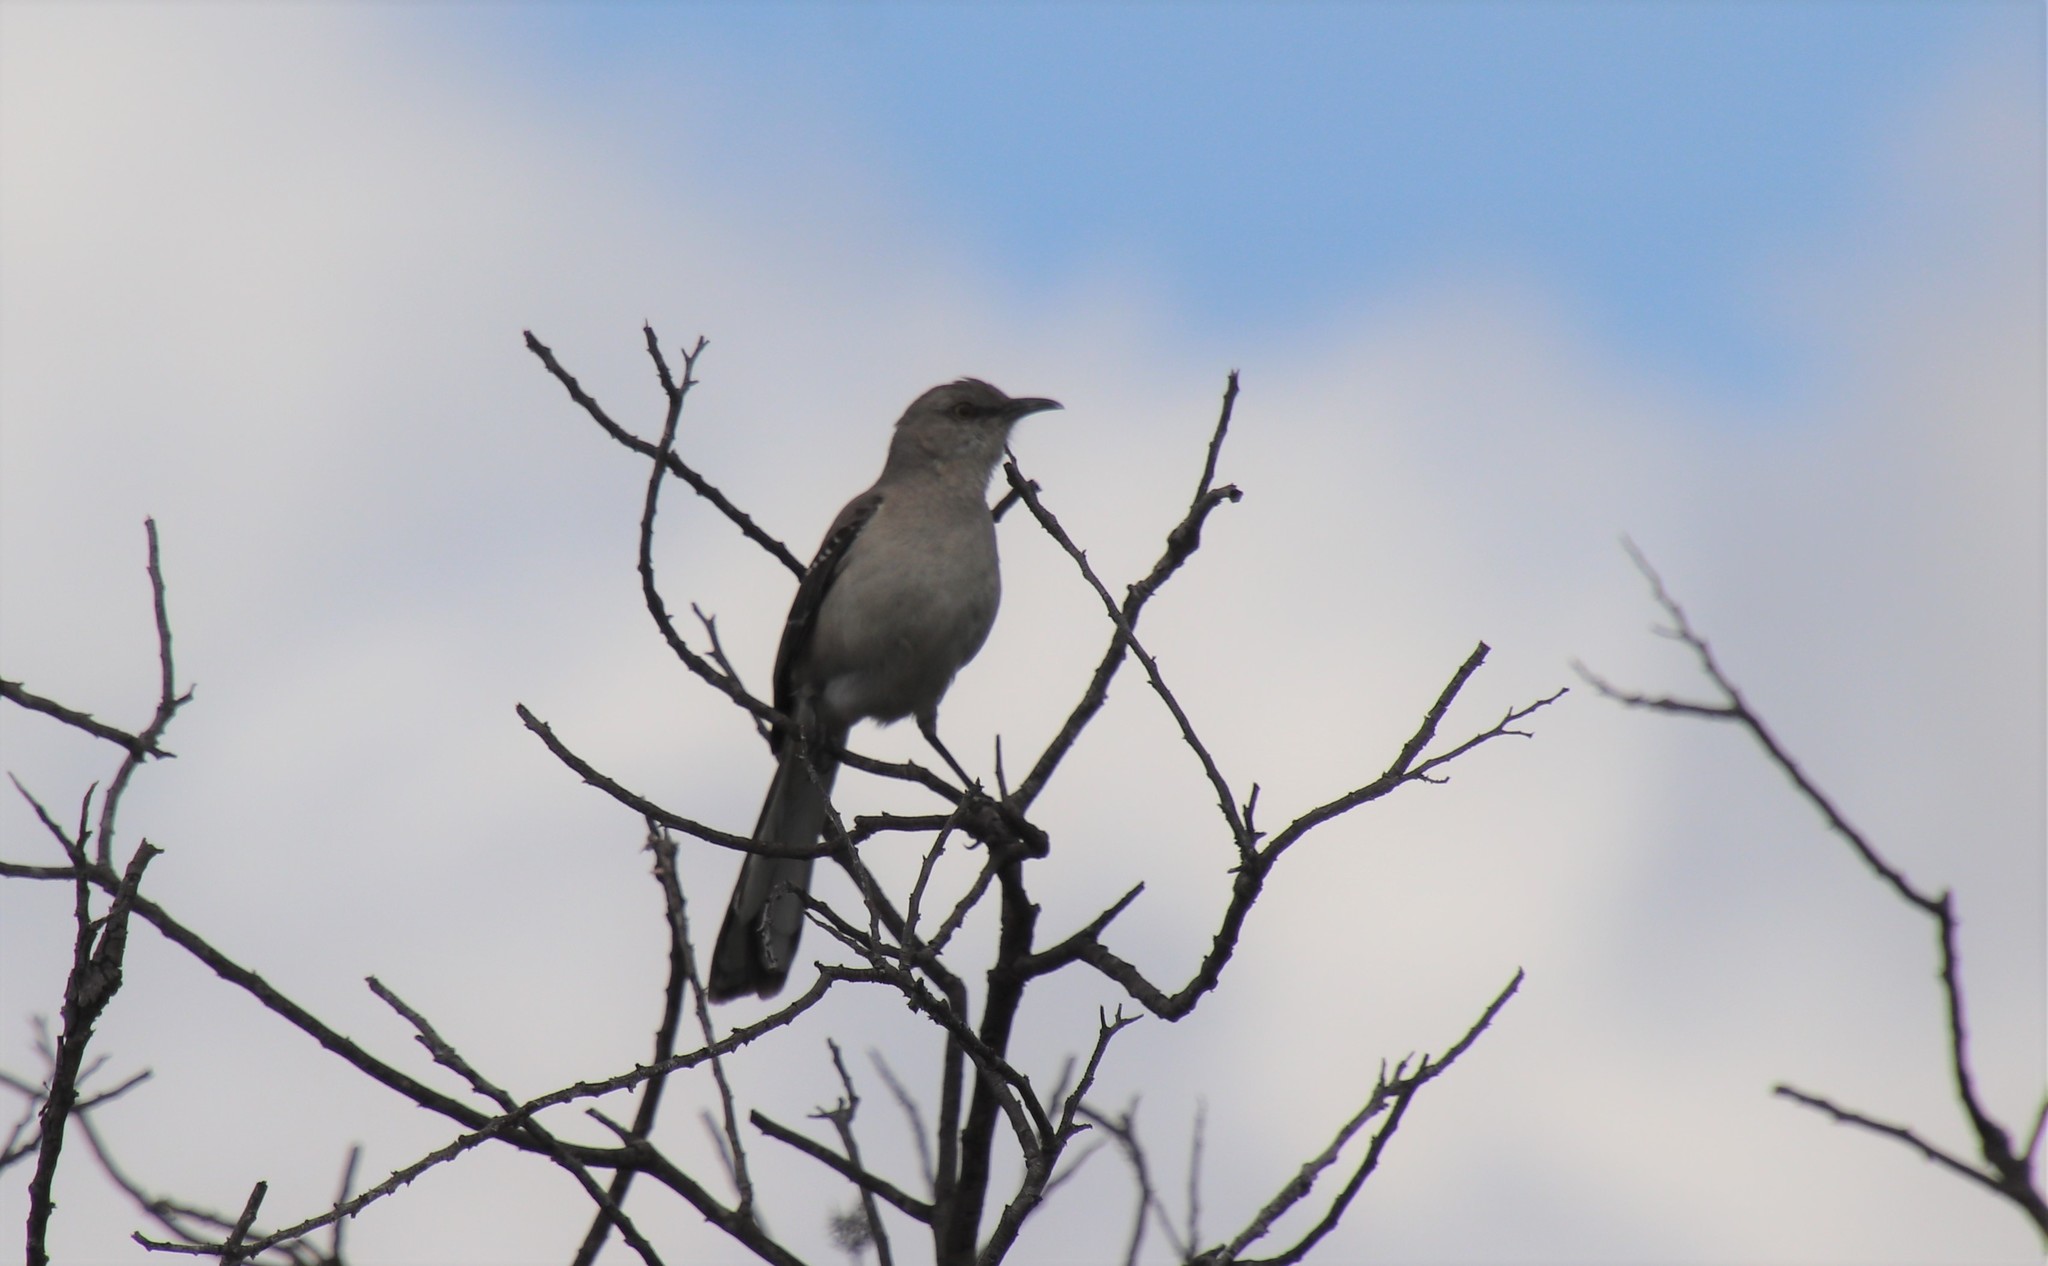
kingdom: Animalia
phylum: Chordata
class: Aves
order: Passeriformes
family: Mimidae
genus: Mimus
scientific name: Mimus polyglottos
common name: Northern mockingbird
